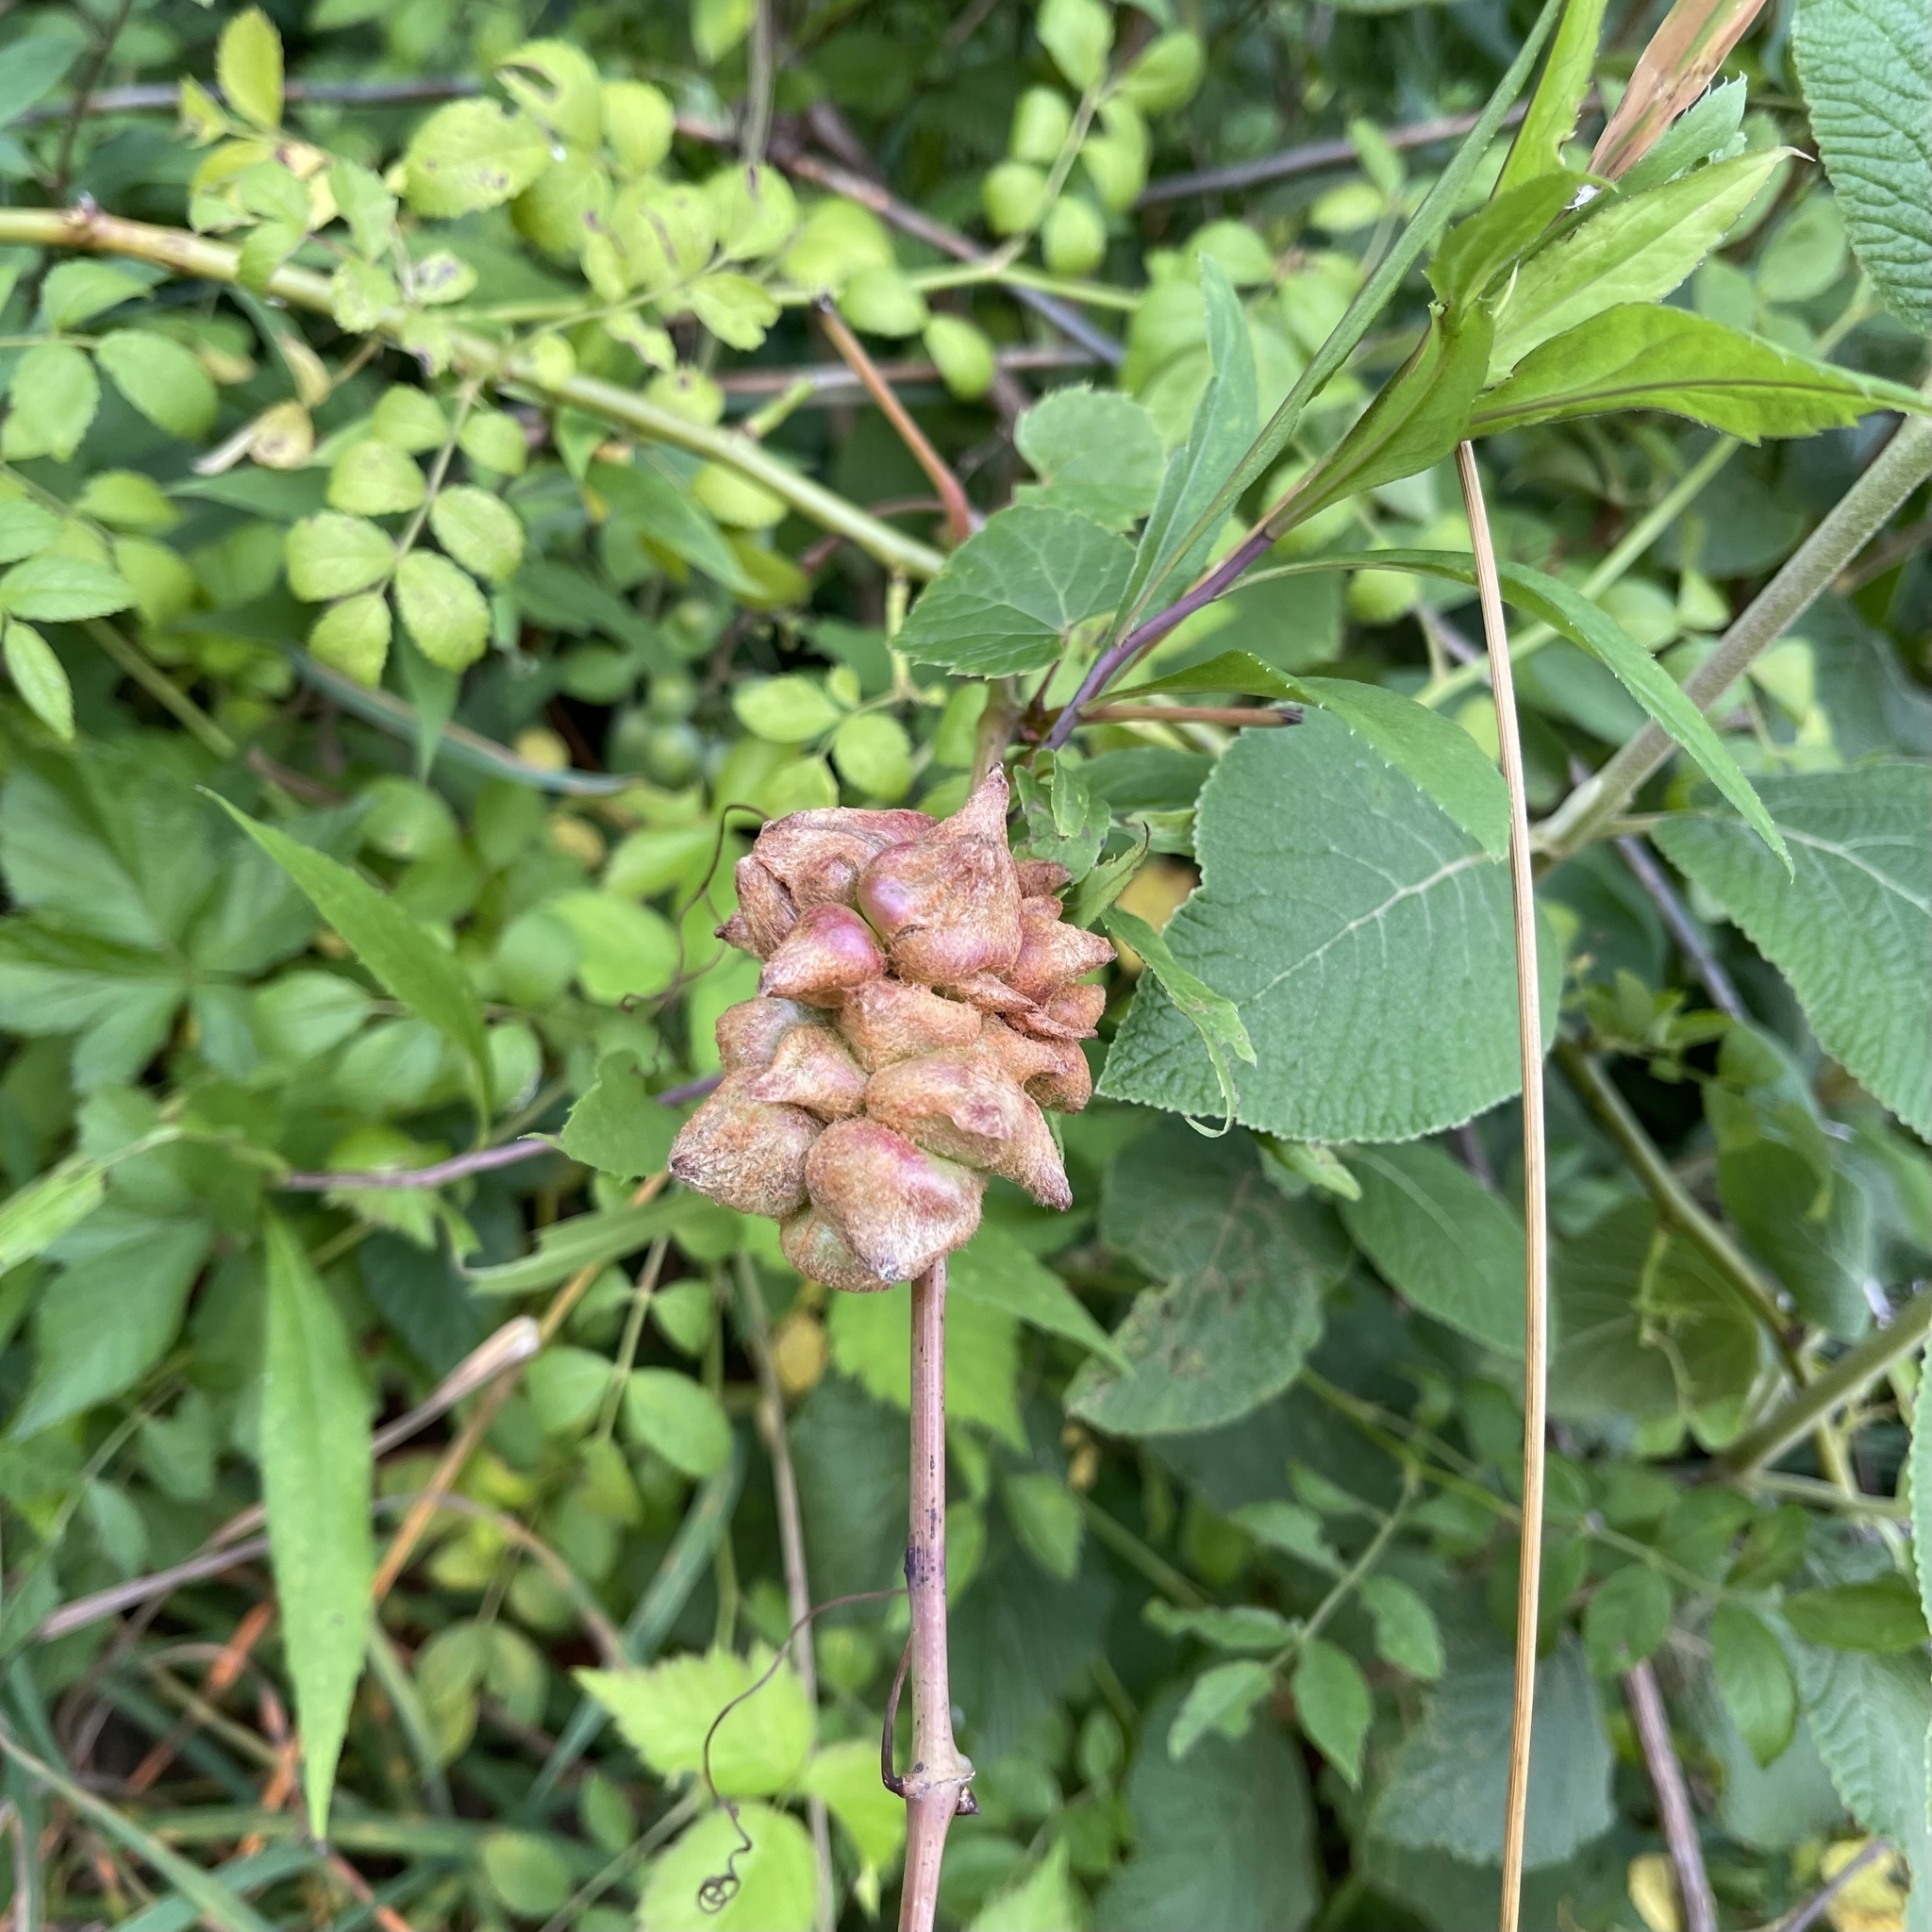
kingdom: Animalia
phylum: Arthropoda
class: Insecta
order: Diptera
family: Cecidomyiidae
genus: Ampelomyia
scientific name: Ampelomyia vitiscoryloides
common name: Grape filbert gall
